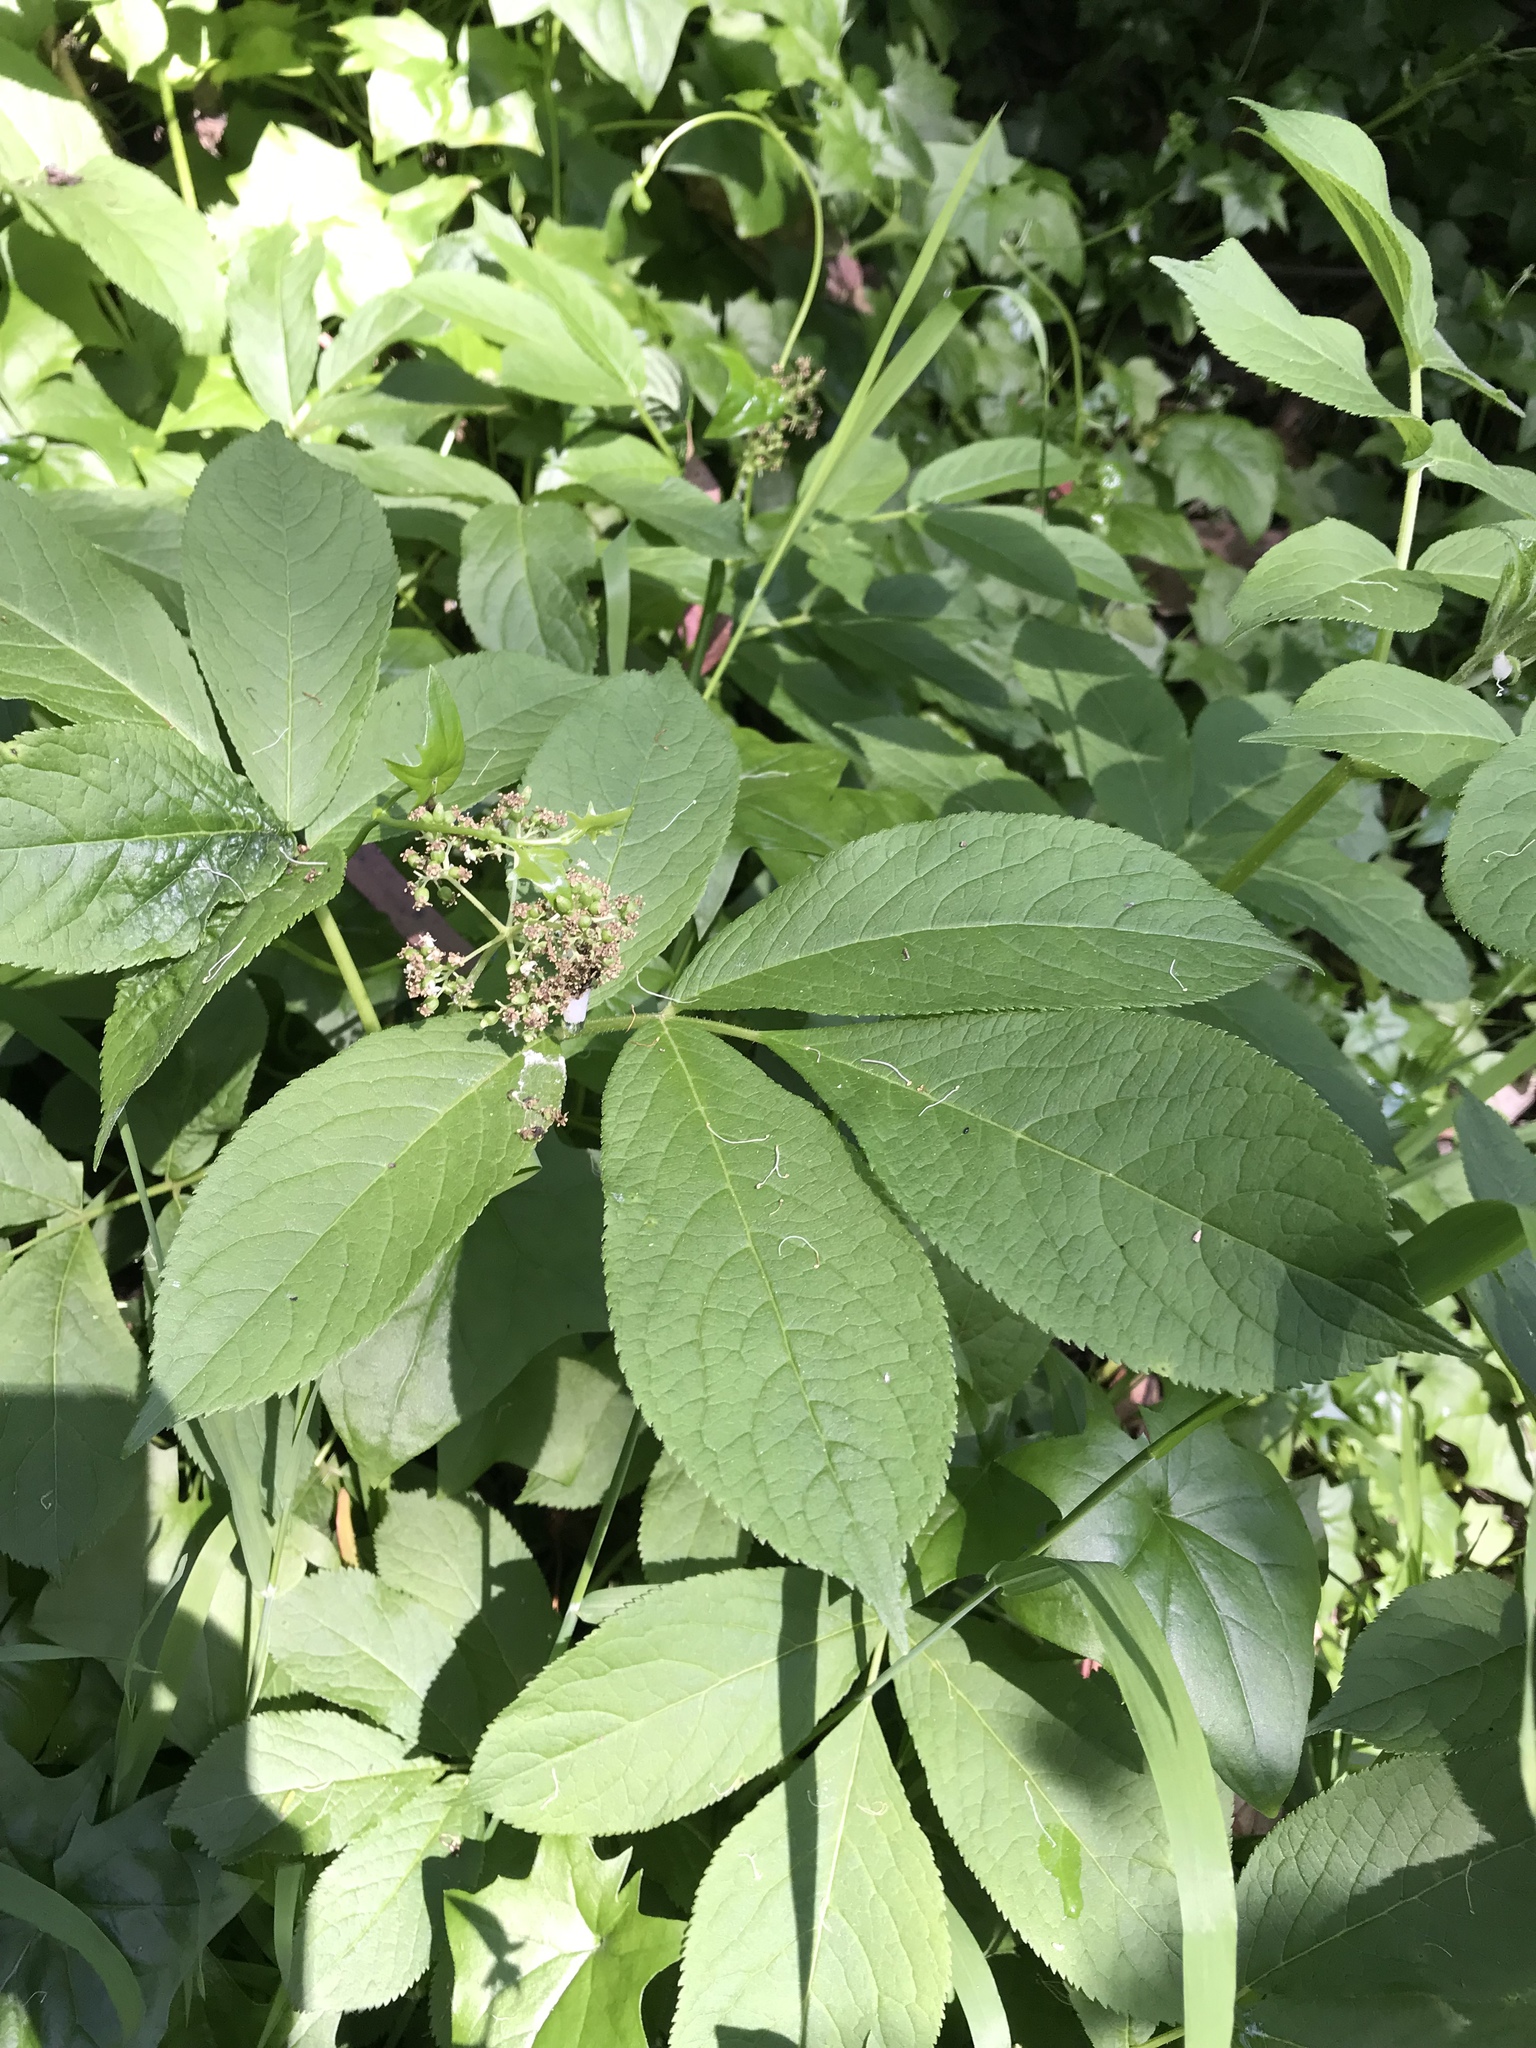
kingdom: Plantae
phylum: Tracheophyta
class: Magnoliopsida
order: Dipsacales
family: Viburnaceae
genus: Sambucus
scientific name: Sambucus racemosa
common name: Red-berried elder
